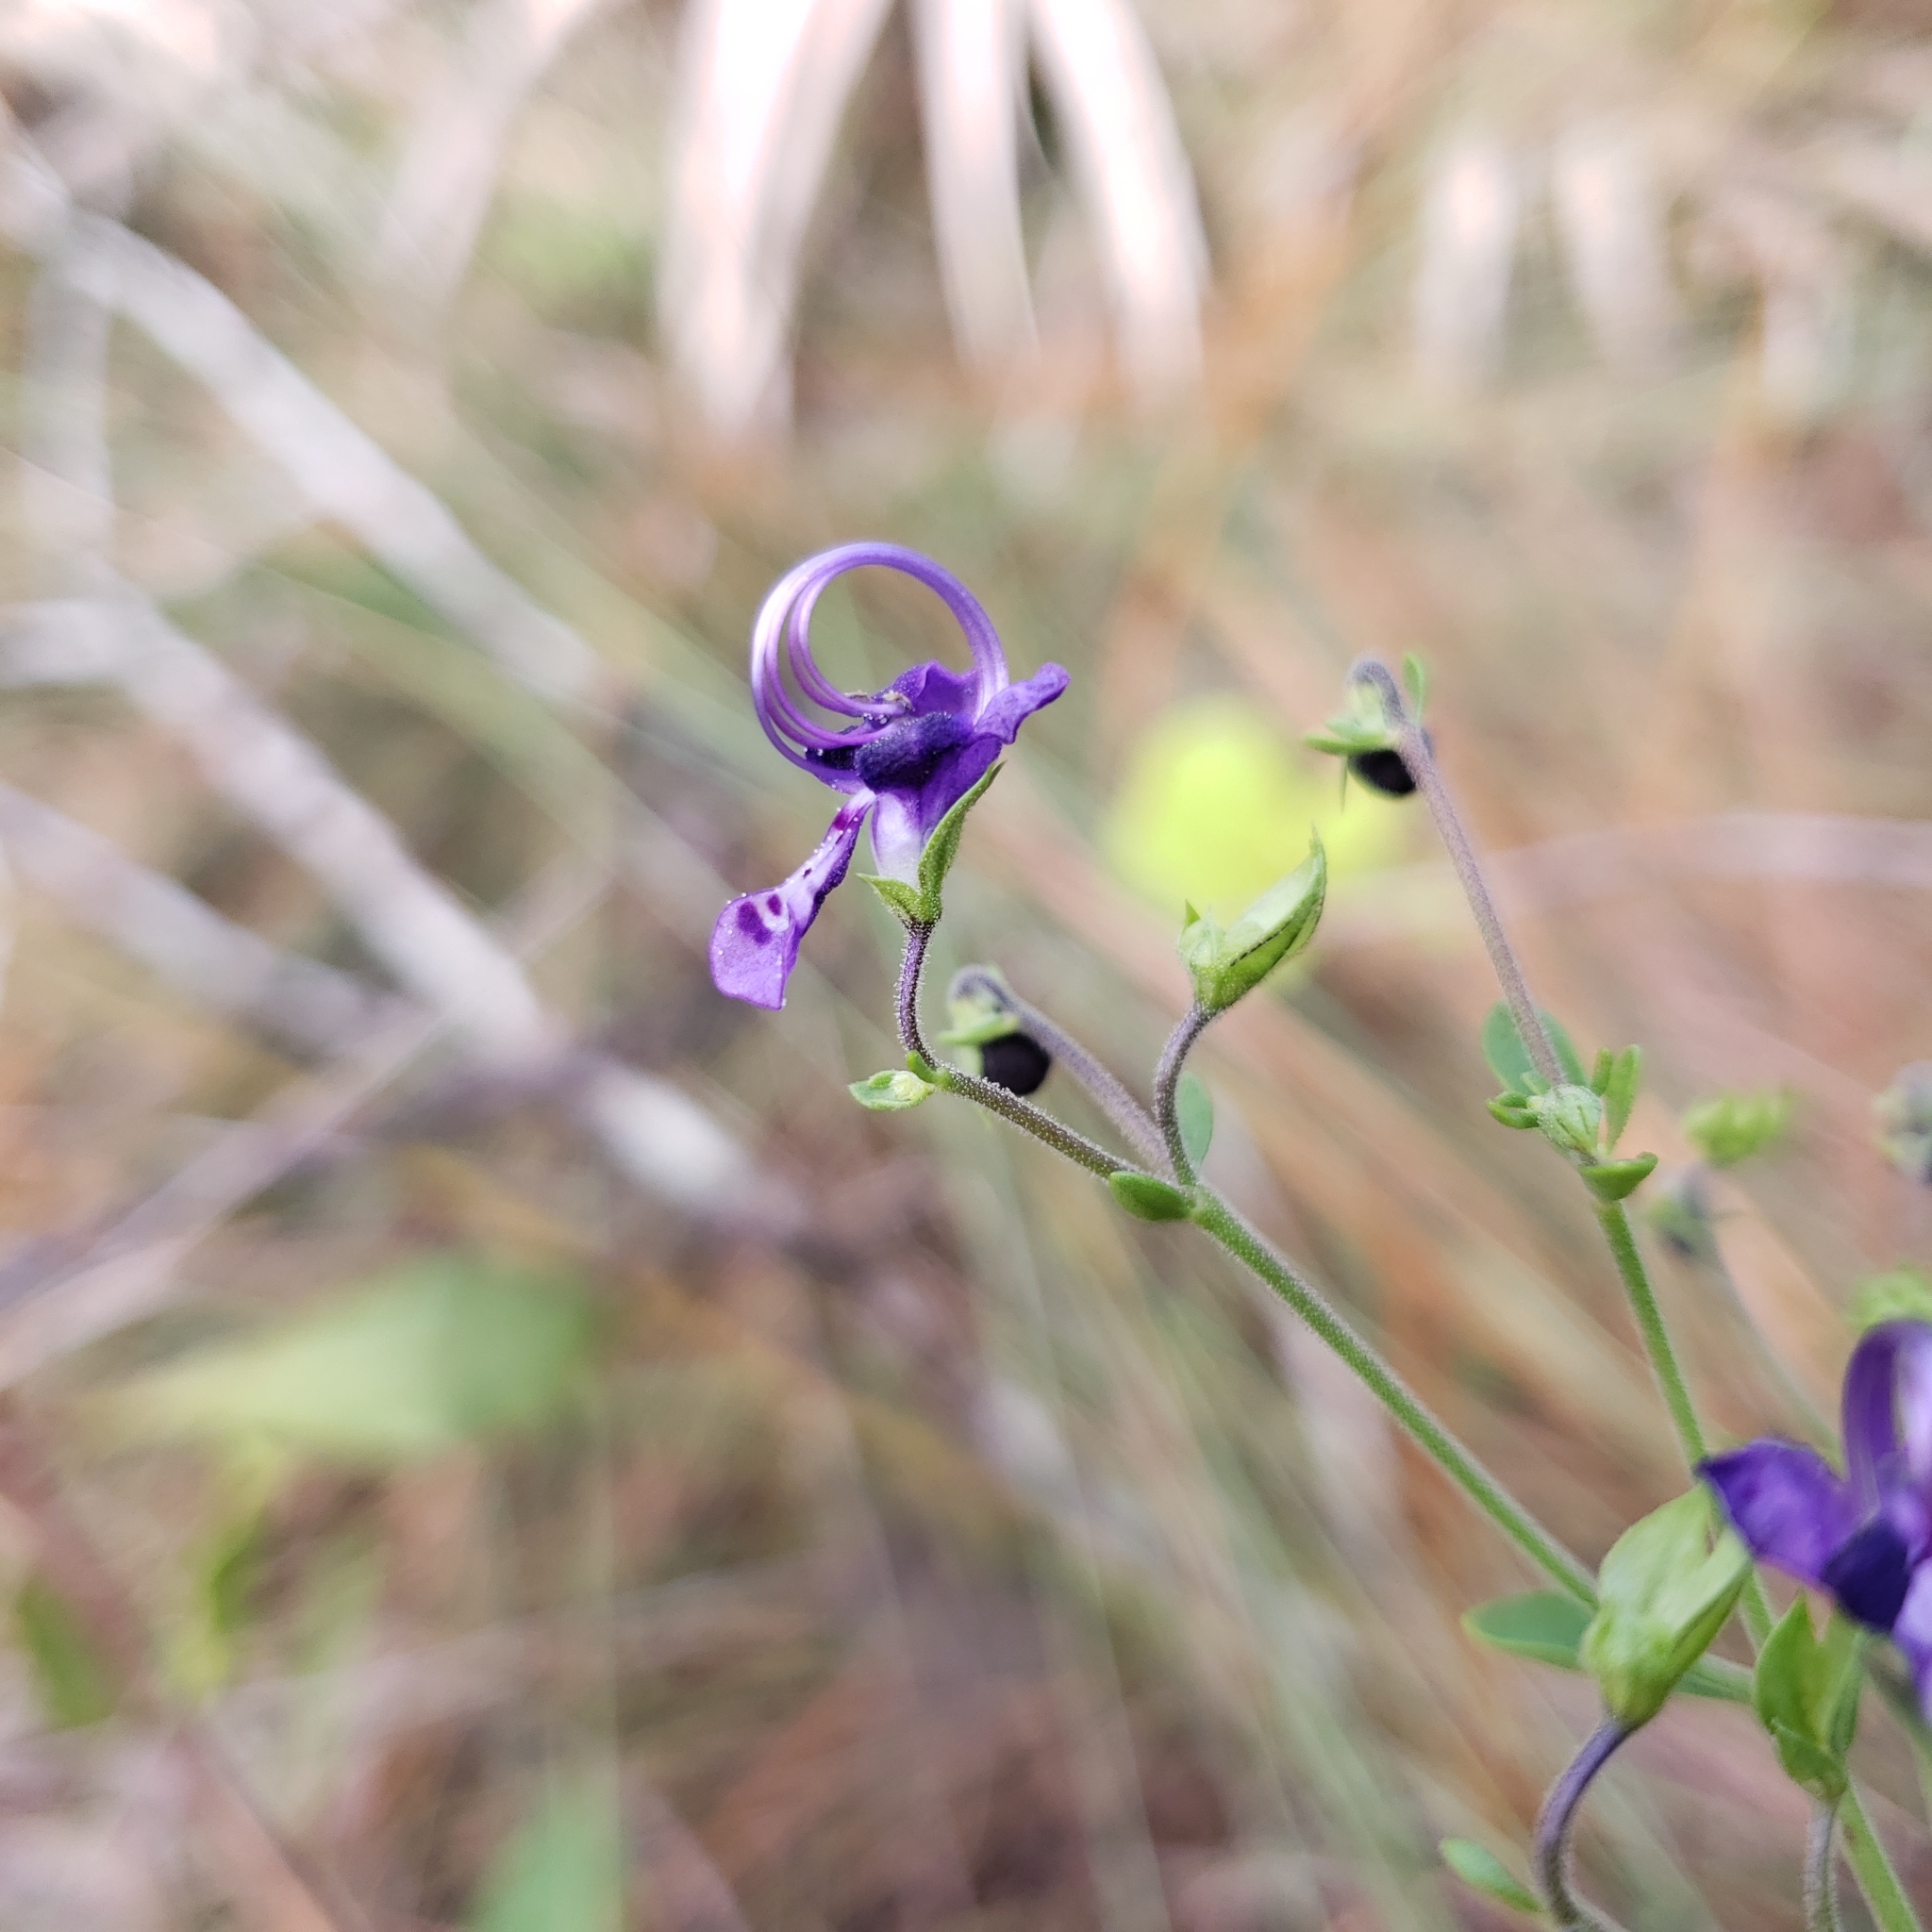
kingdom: Plantae
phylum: Tracheophyta
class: Magnoliopsida
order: Lamiales
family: Lamiaceae
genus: Trichostema
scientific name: Trichostema suffrutescens
